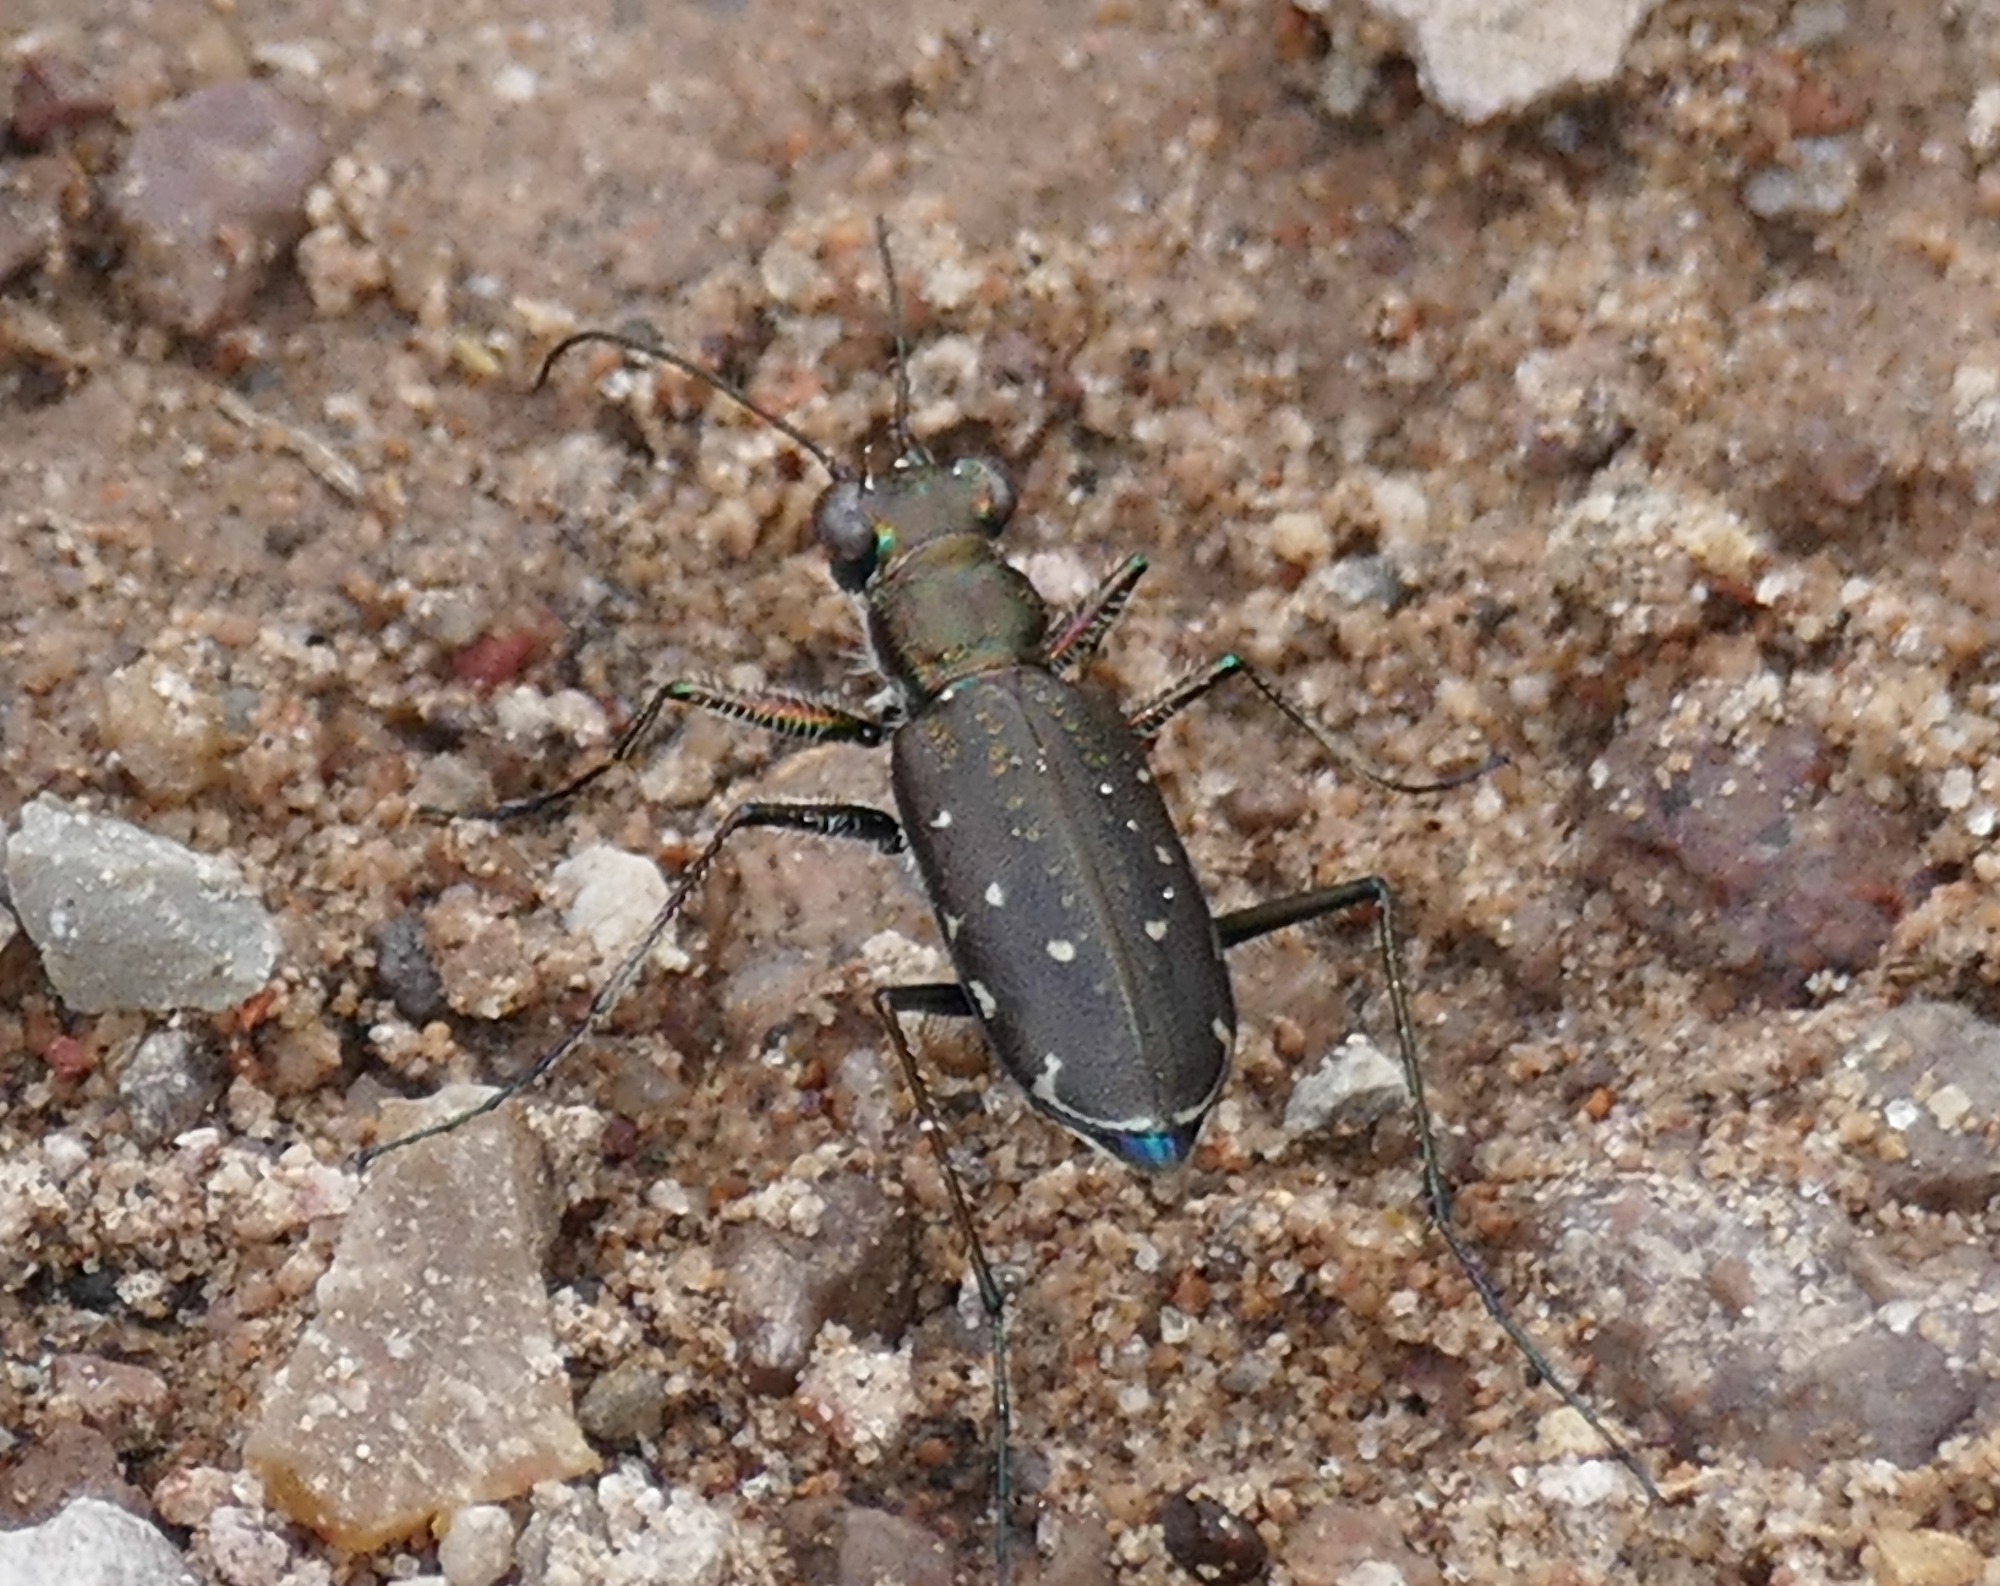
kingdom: Animalia
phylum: Arthropoda
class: Insecta
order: Coleoptera
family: Carabidae
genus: Cicindela
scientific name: Cicindela punctulata
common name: Punctured tiger beetle
